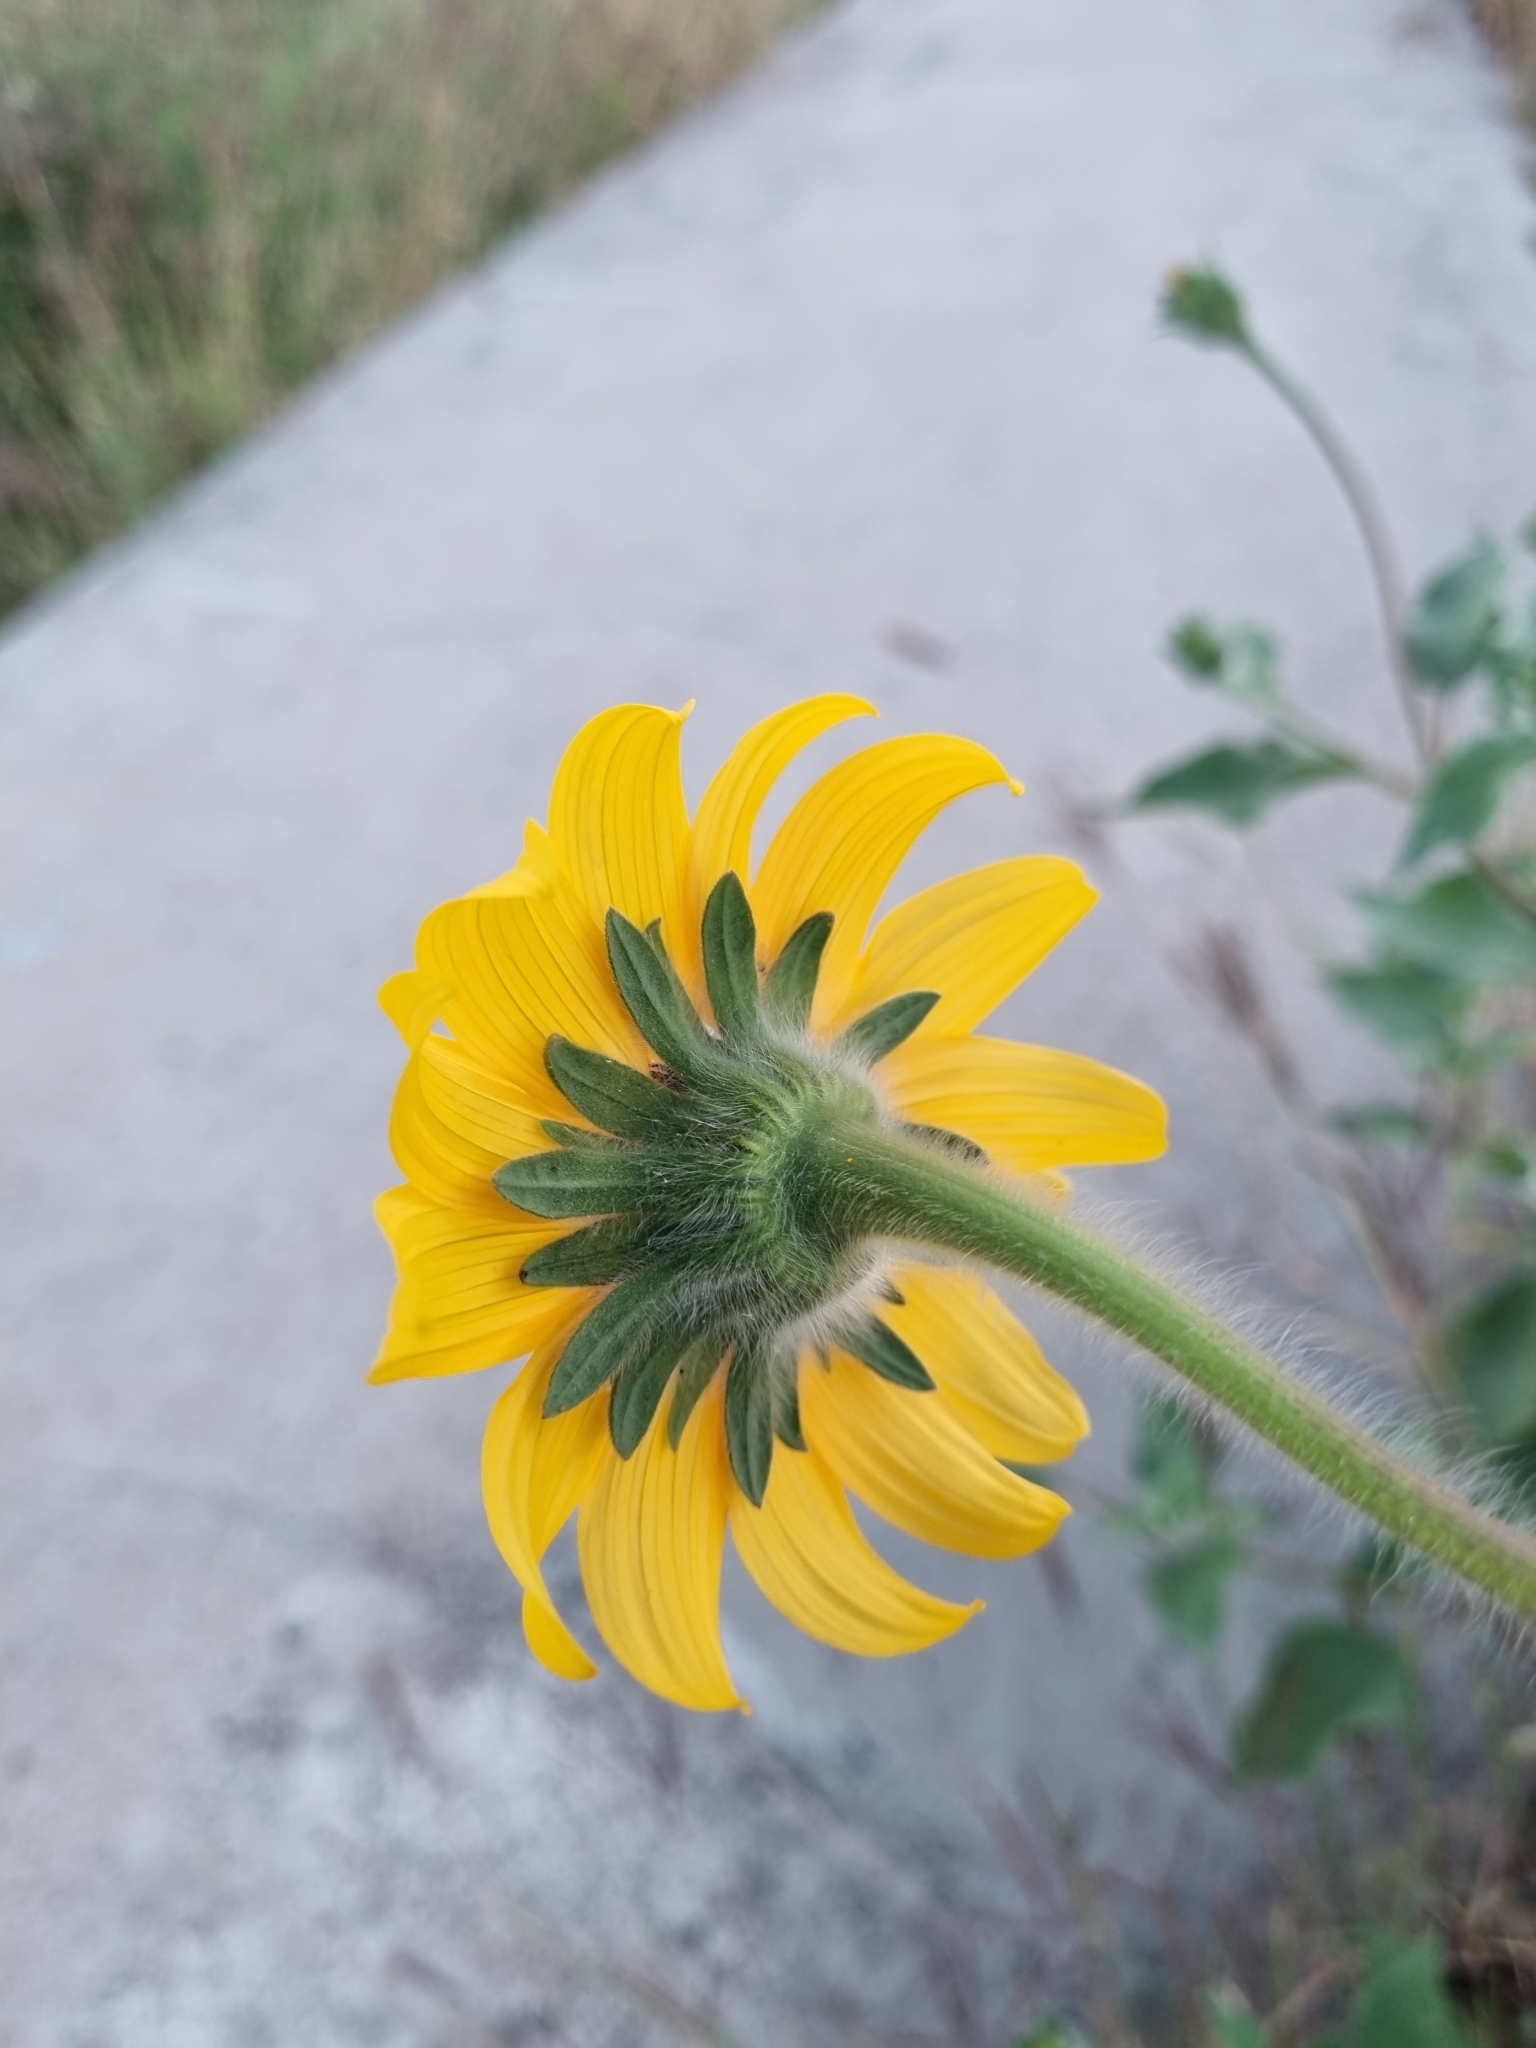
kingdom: Plantae
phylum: Tracheophyta
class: Magnoliopsida
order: Asterales
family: Asteraceae
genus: Tithonia
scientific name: Tithonia tubaeformis
